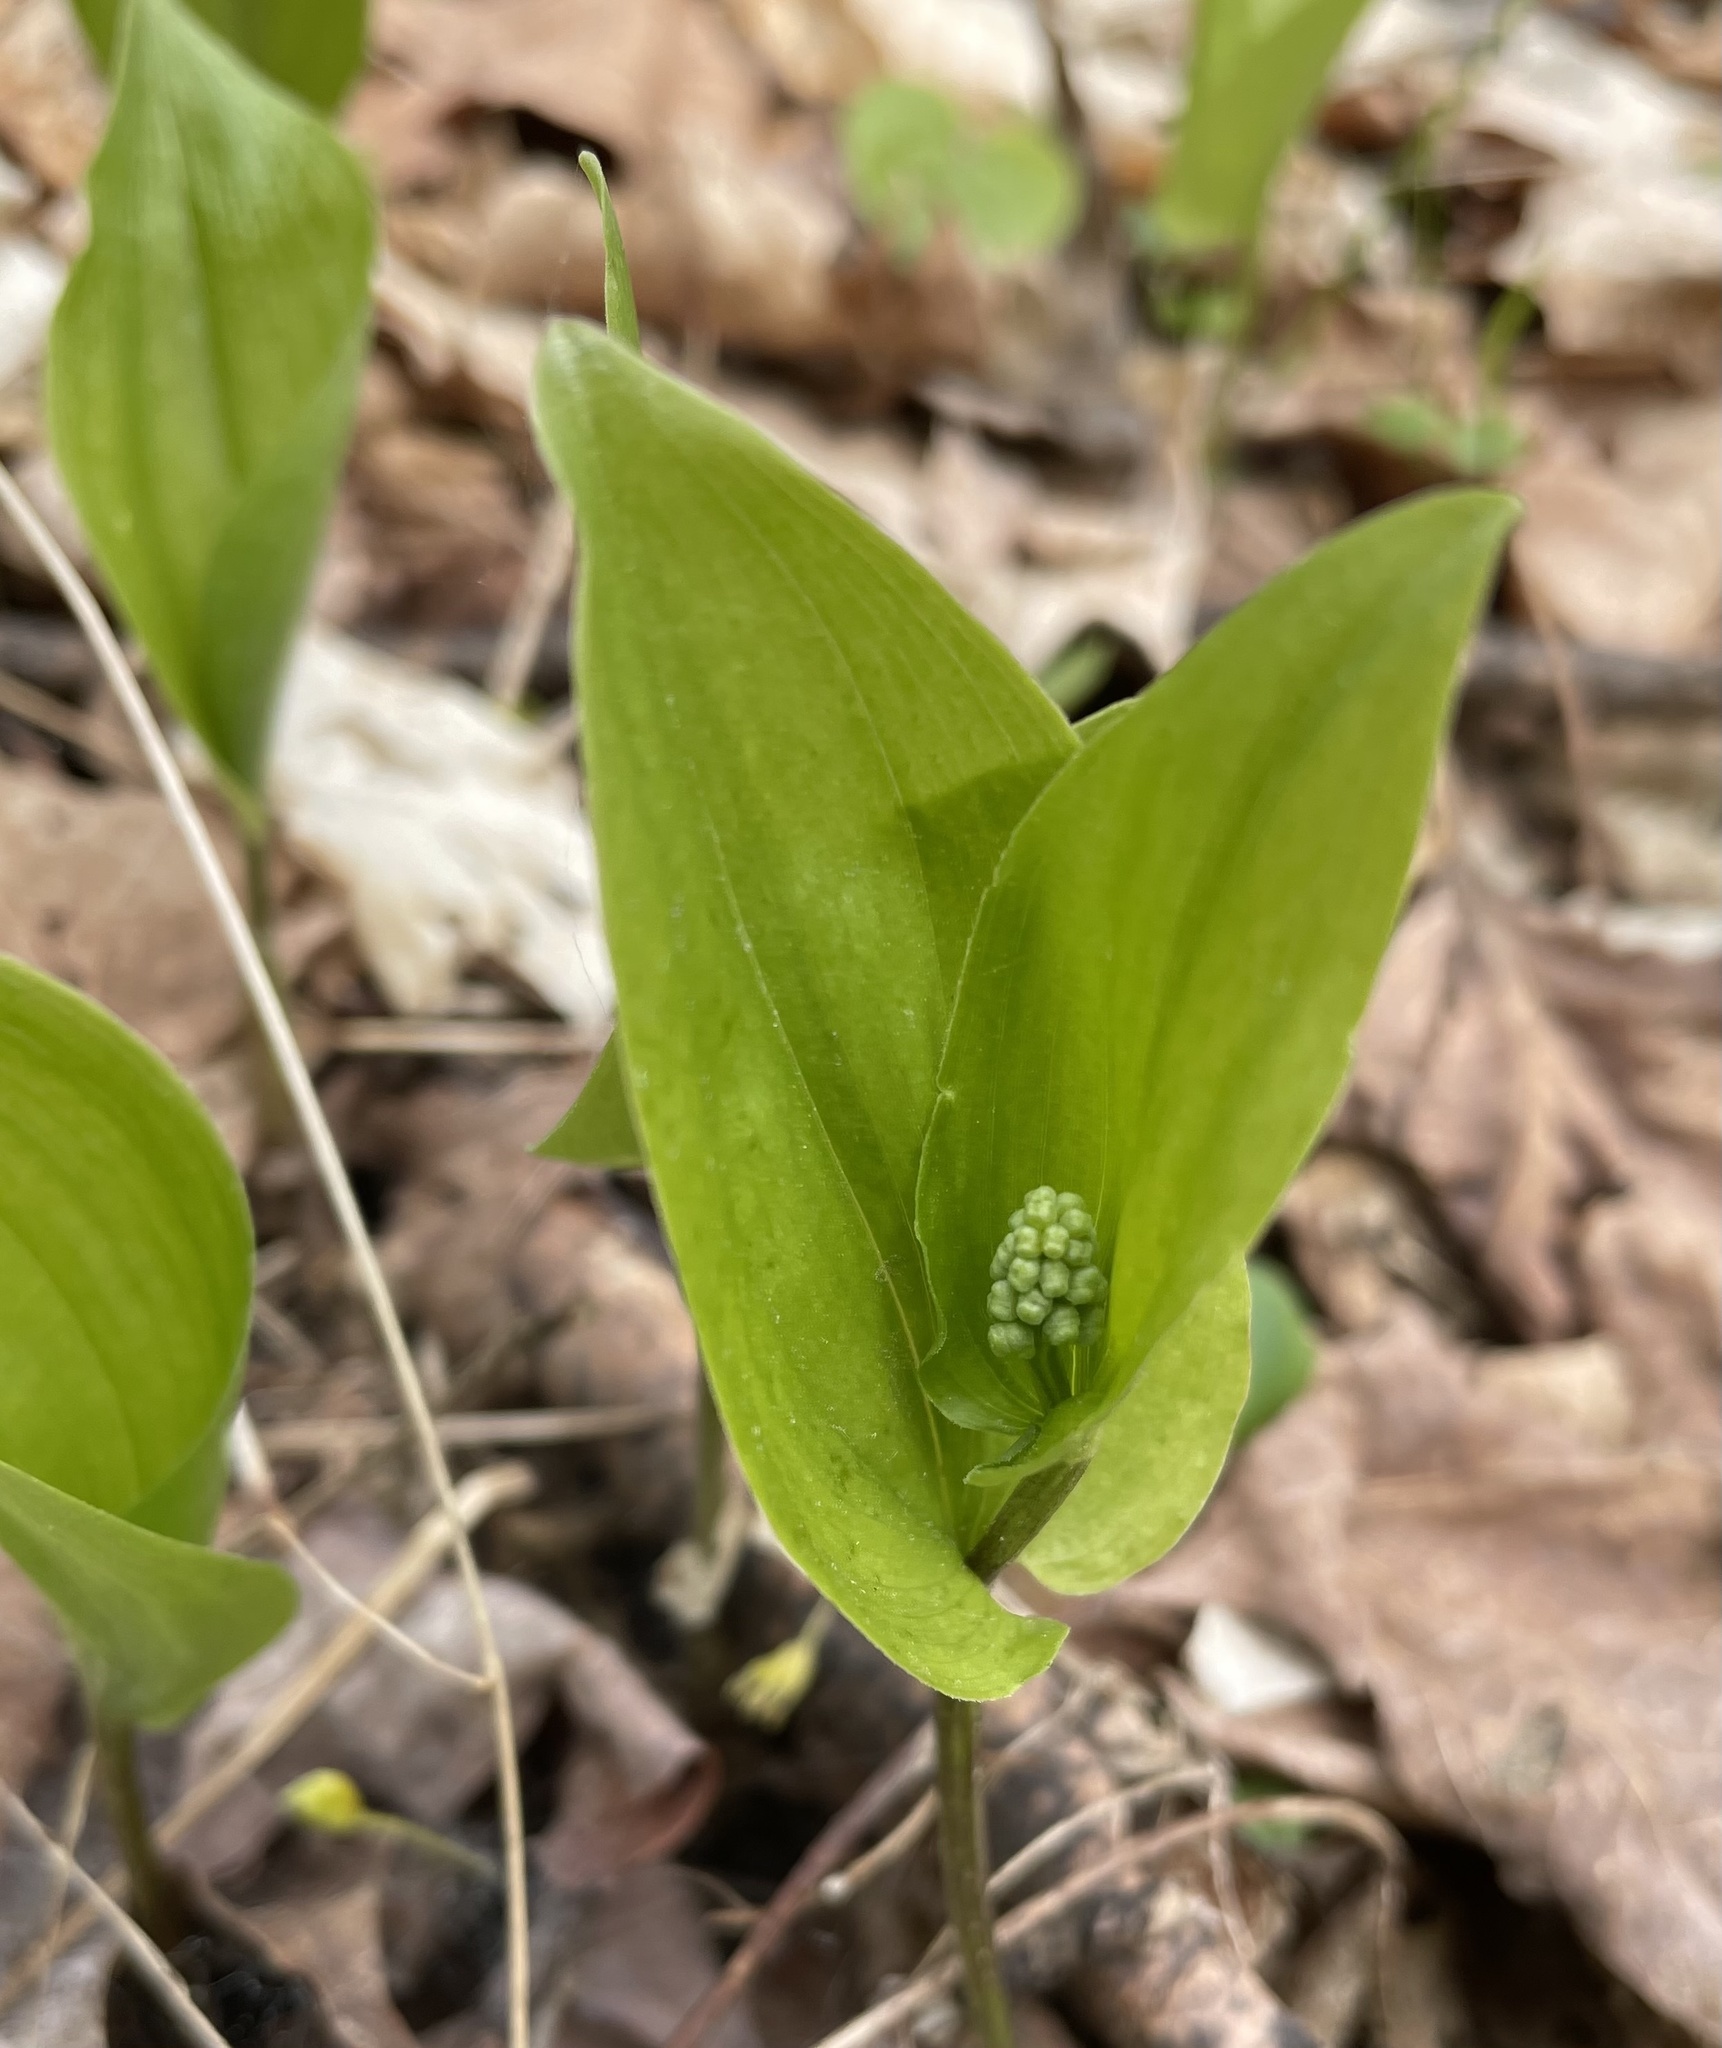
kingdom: Plantae
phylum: Tracheophyta
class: Liliopsida
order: Asparagales
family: Asparagaceae
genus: Maianthemum
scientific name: Maianthemum canadense
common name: False lily-of-the-valley
